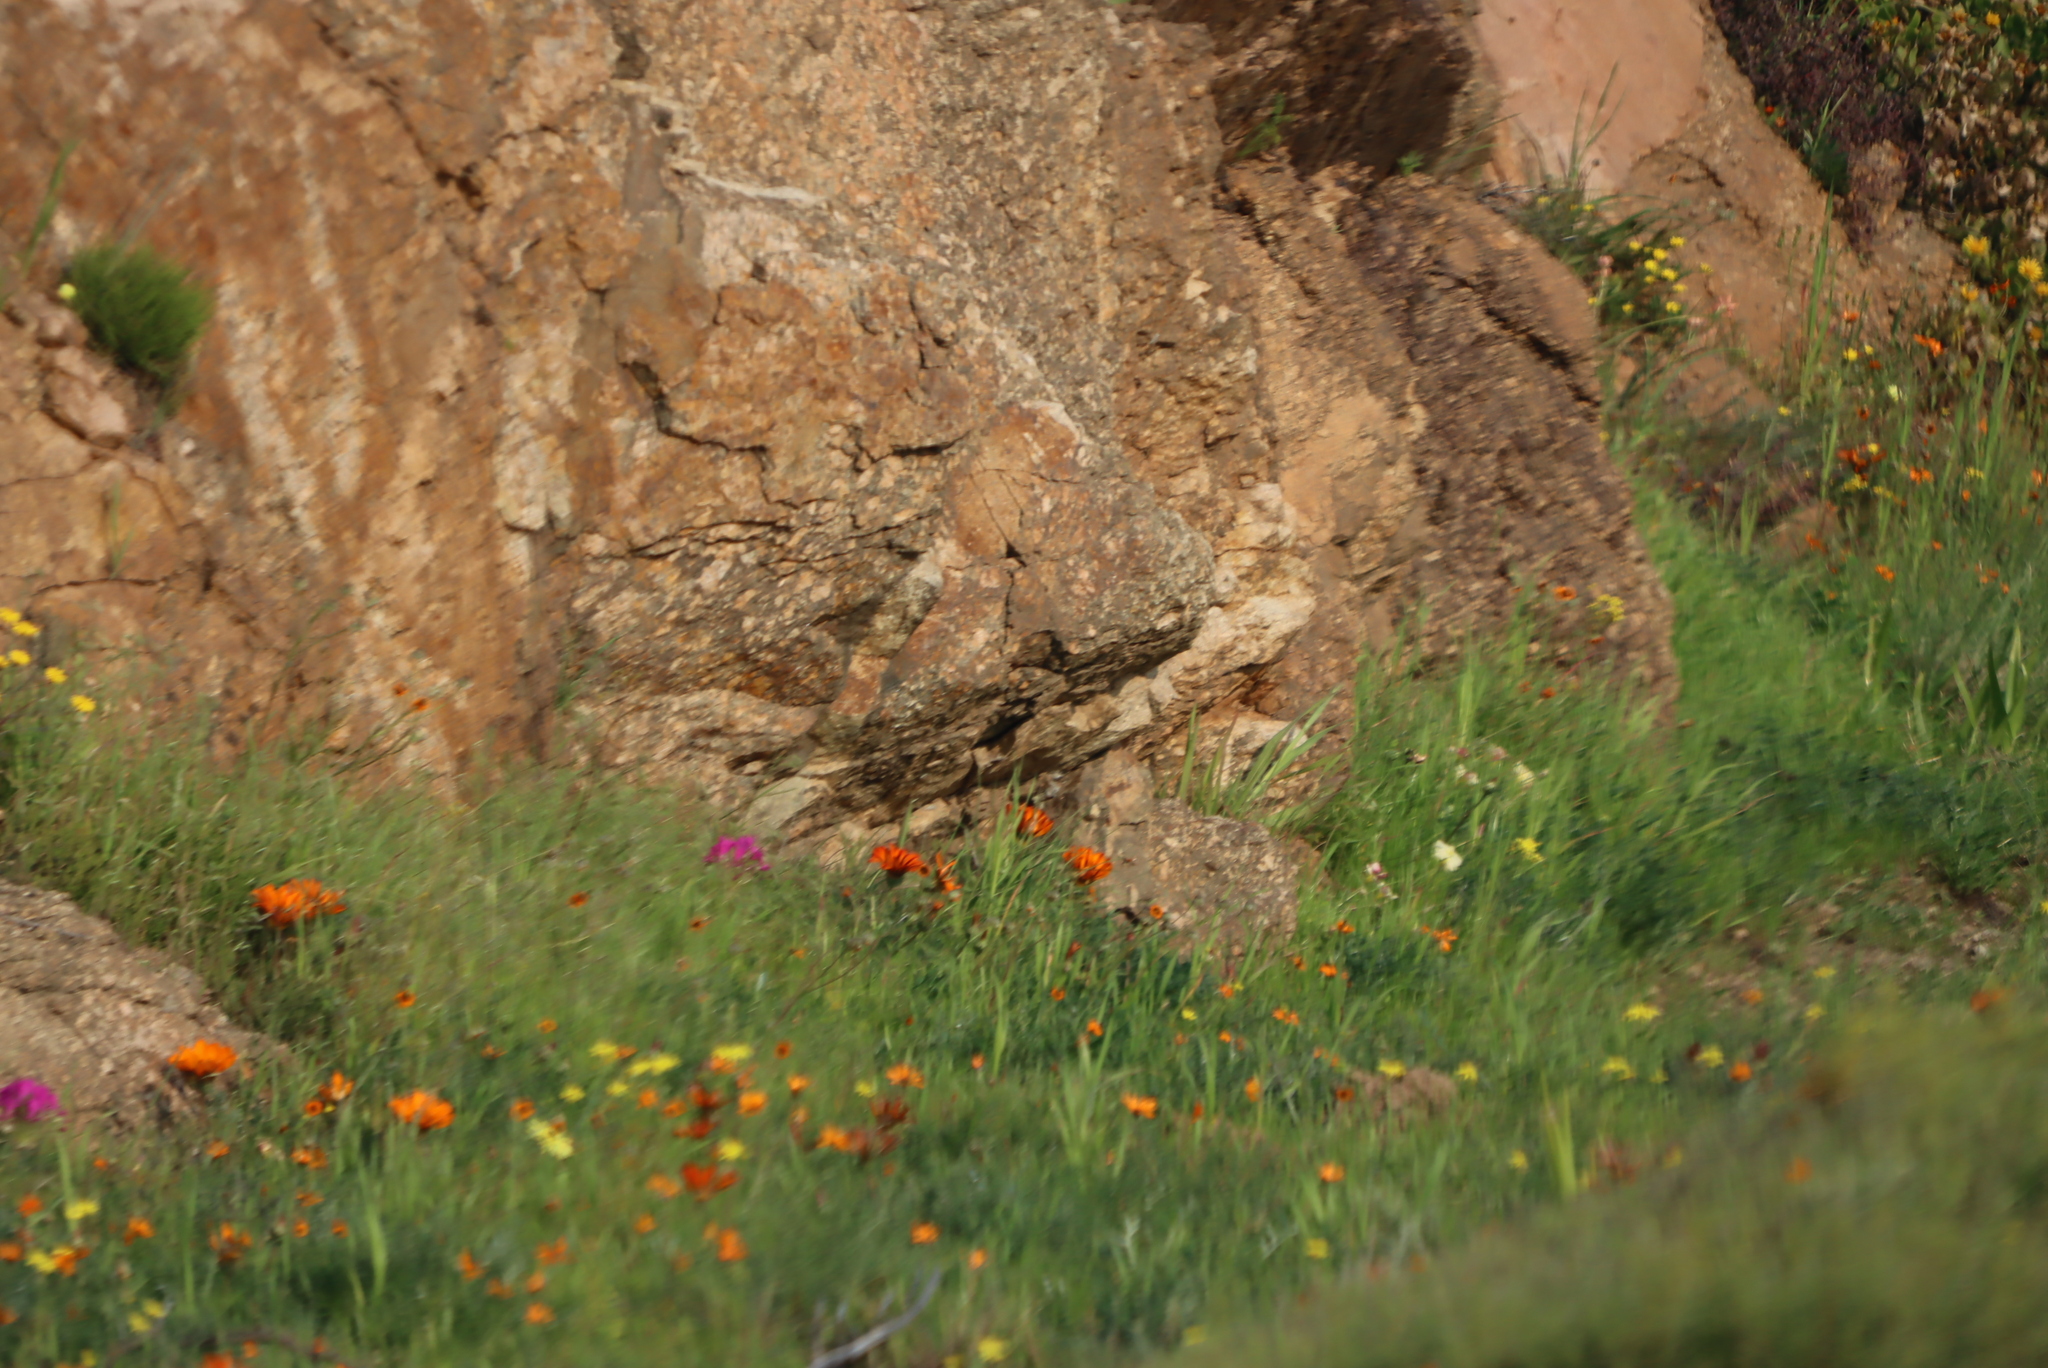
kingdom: Plantae
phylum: Tracheophyta
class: Magnoliopsida
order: Geraniales
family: Geraniaceae
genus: Pelargonium
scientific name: Pelargonium incrassatum
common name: Namaqualand beauty
